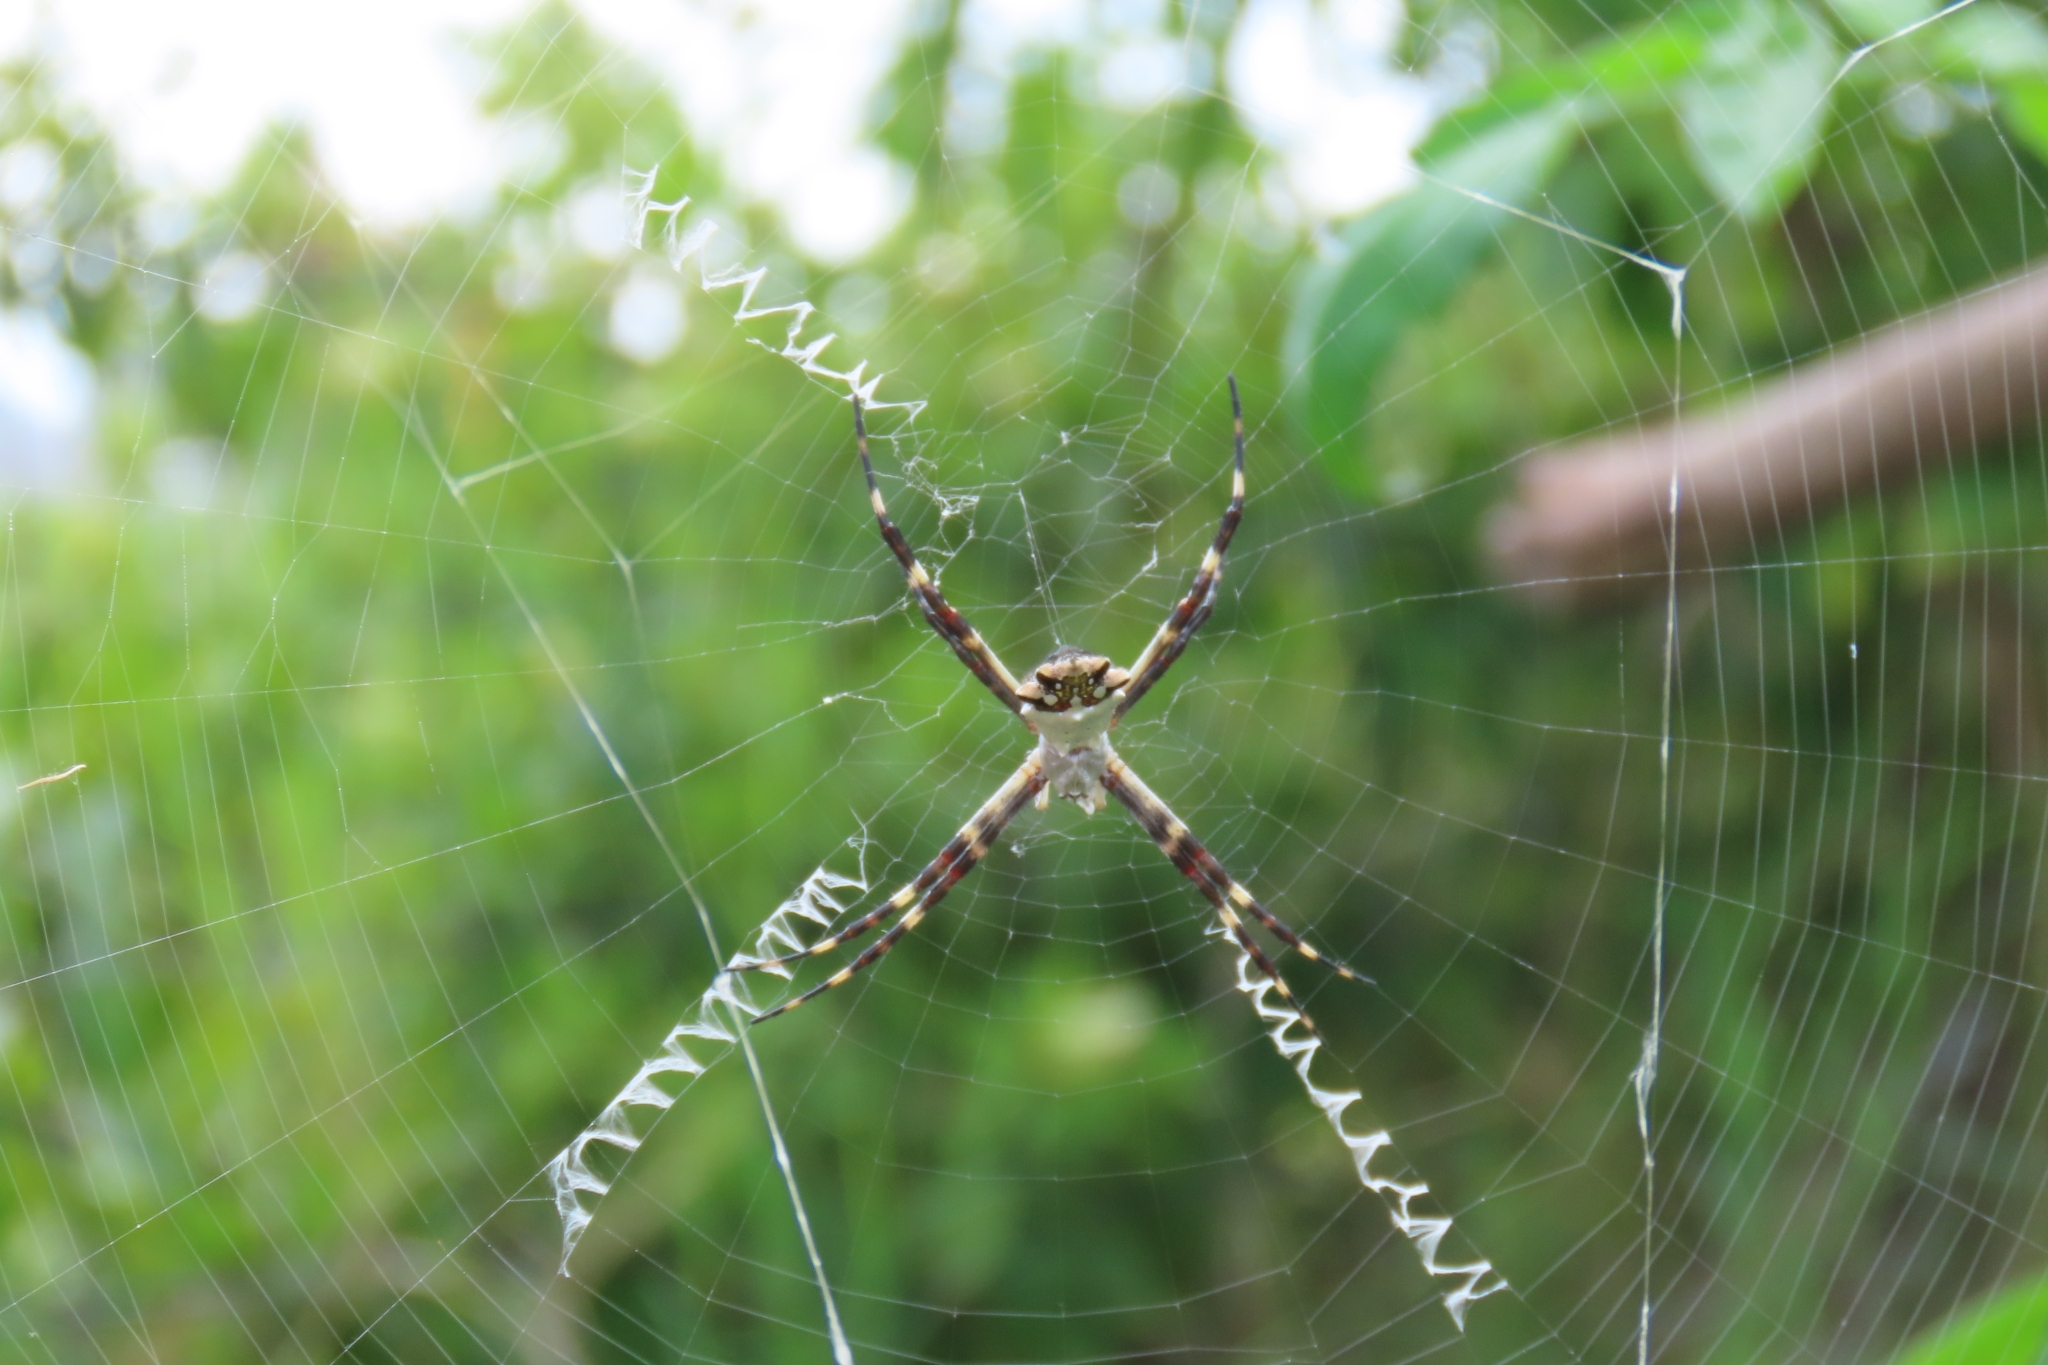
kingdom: Animalia
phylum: Arthropoda
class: Arachnida
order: Araneae
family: Araneidae
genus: Argiope
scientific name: Argiope argentata
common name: Orb weavers
